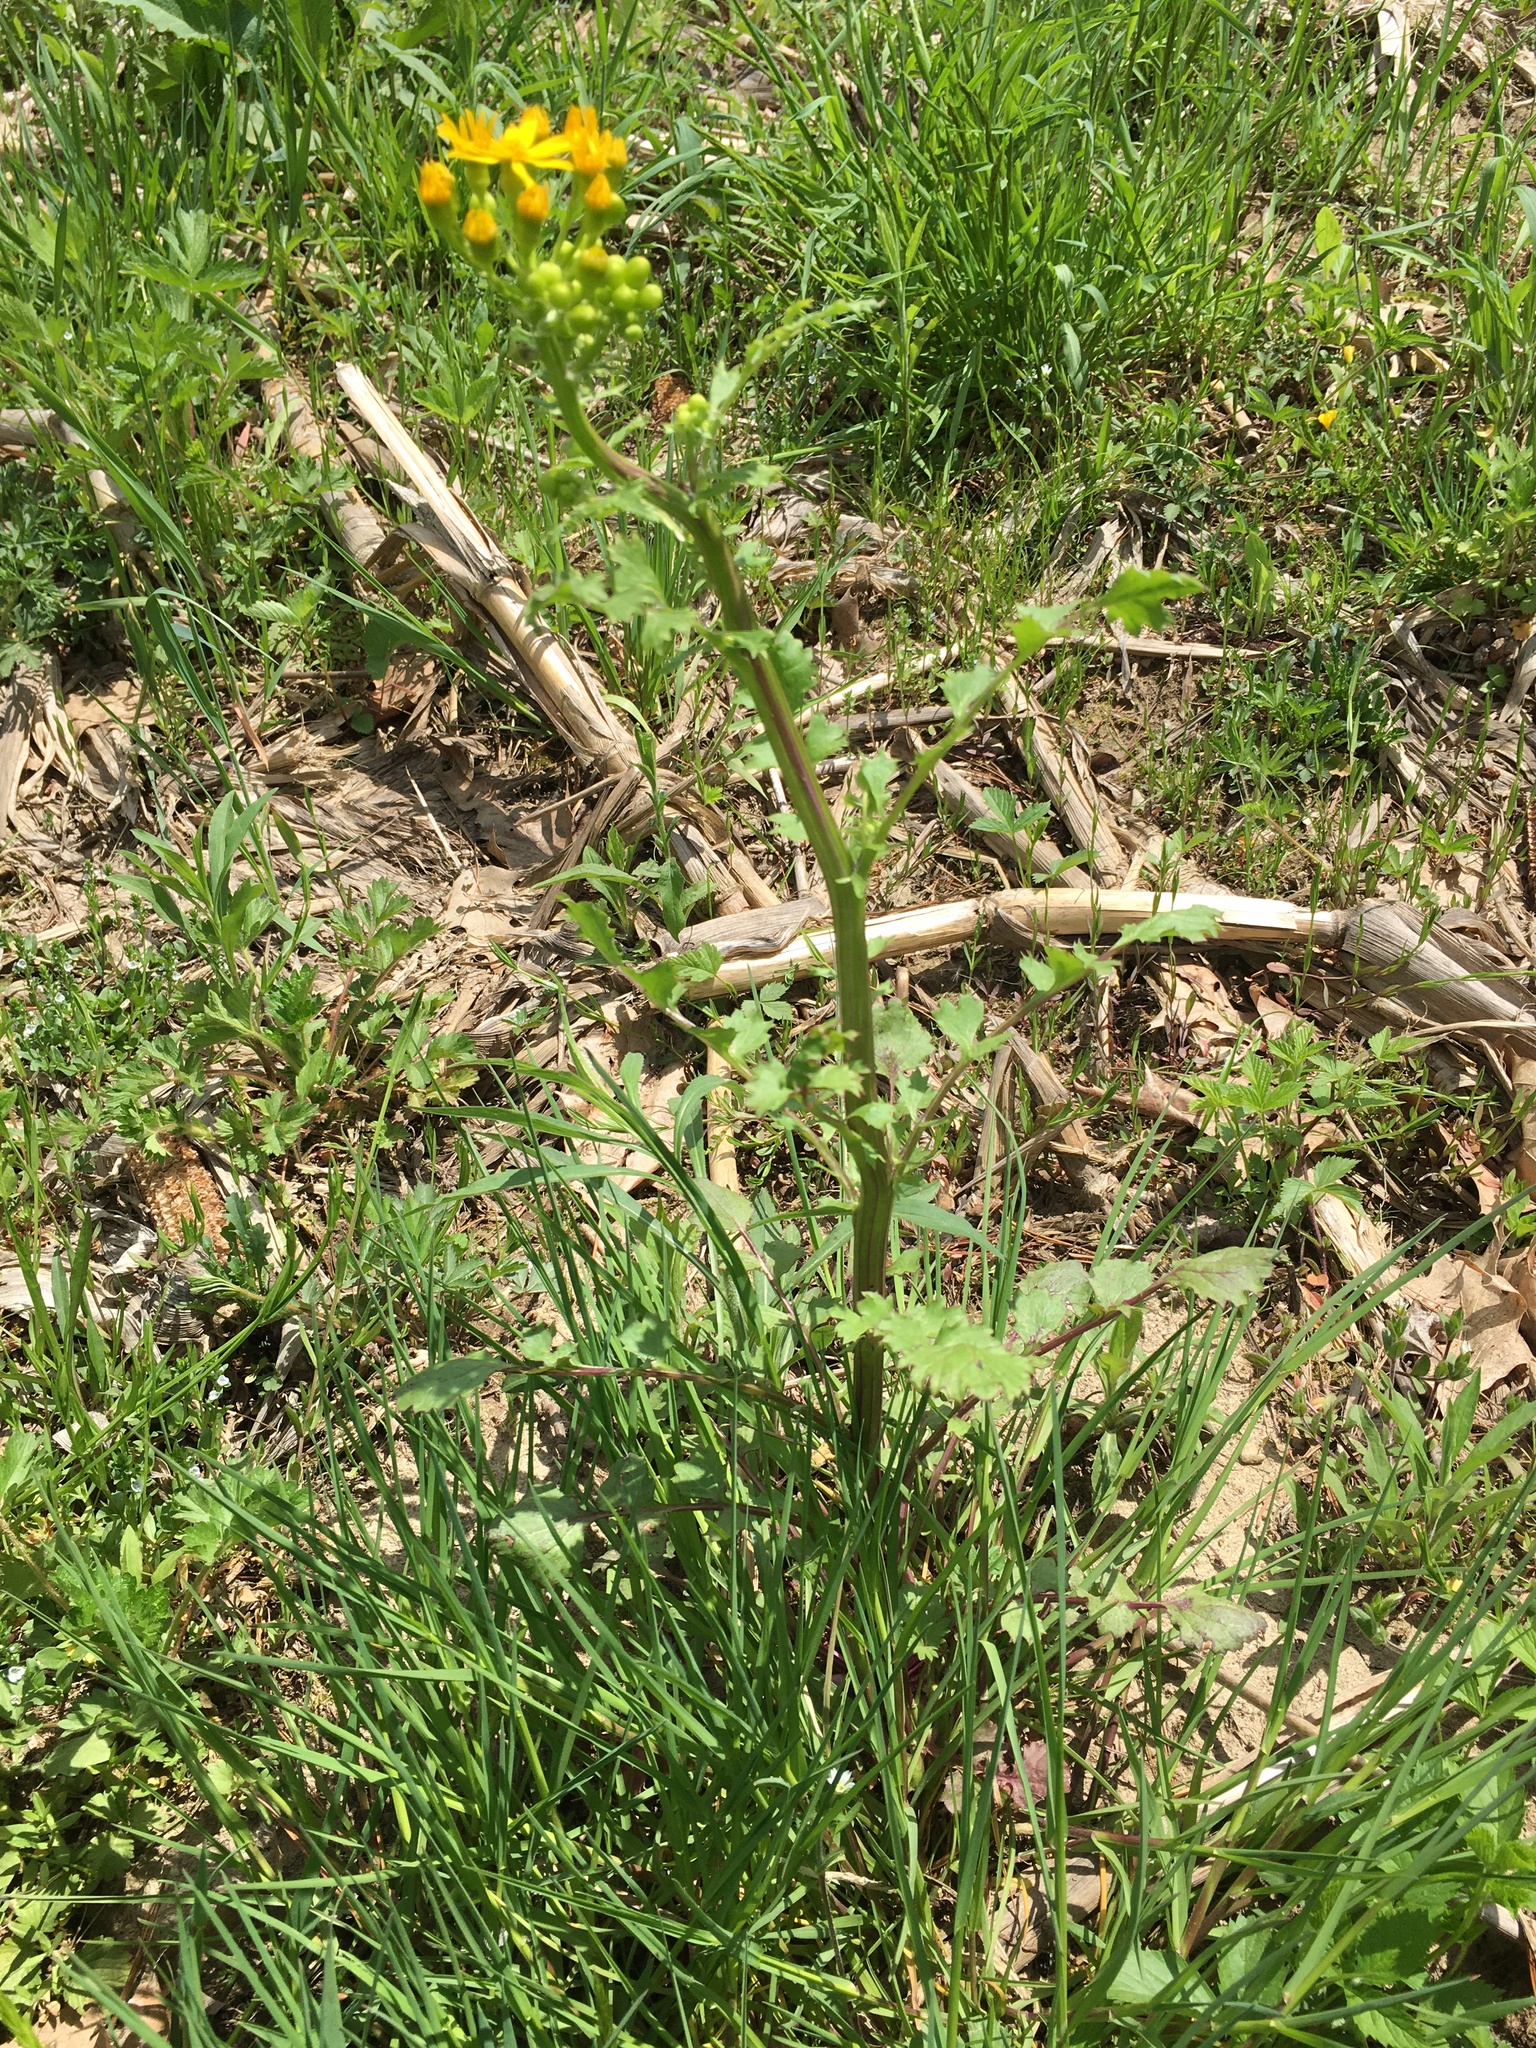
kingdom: Plantae
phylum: Tracheophyta
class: Magnoliopsida
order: Asterales
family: Asteraceae
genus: Packera
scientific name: Packera glabella
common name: Butterweed
